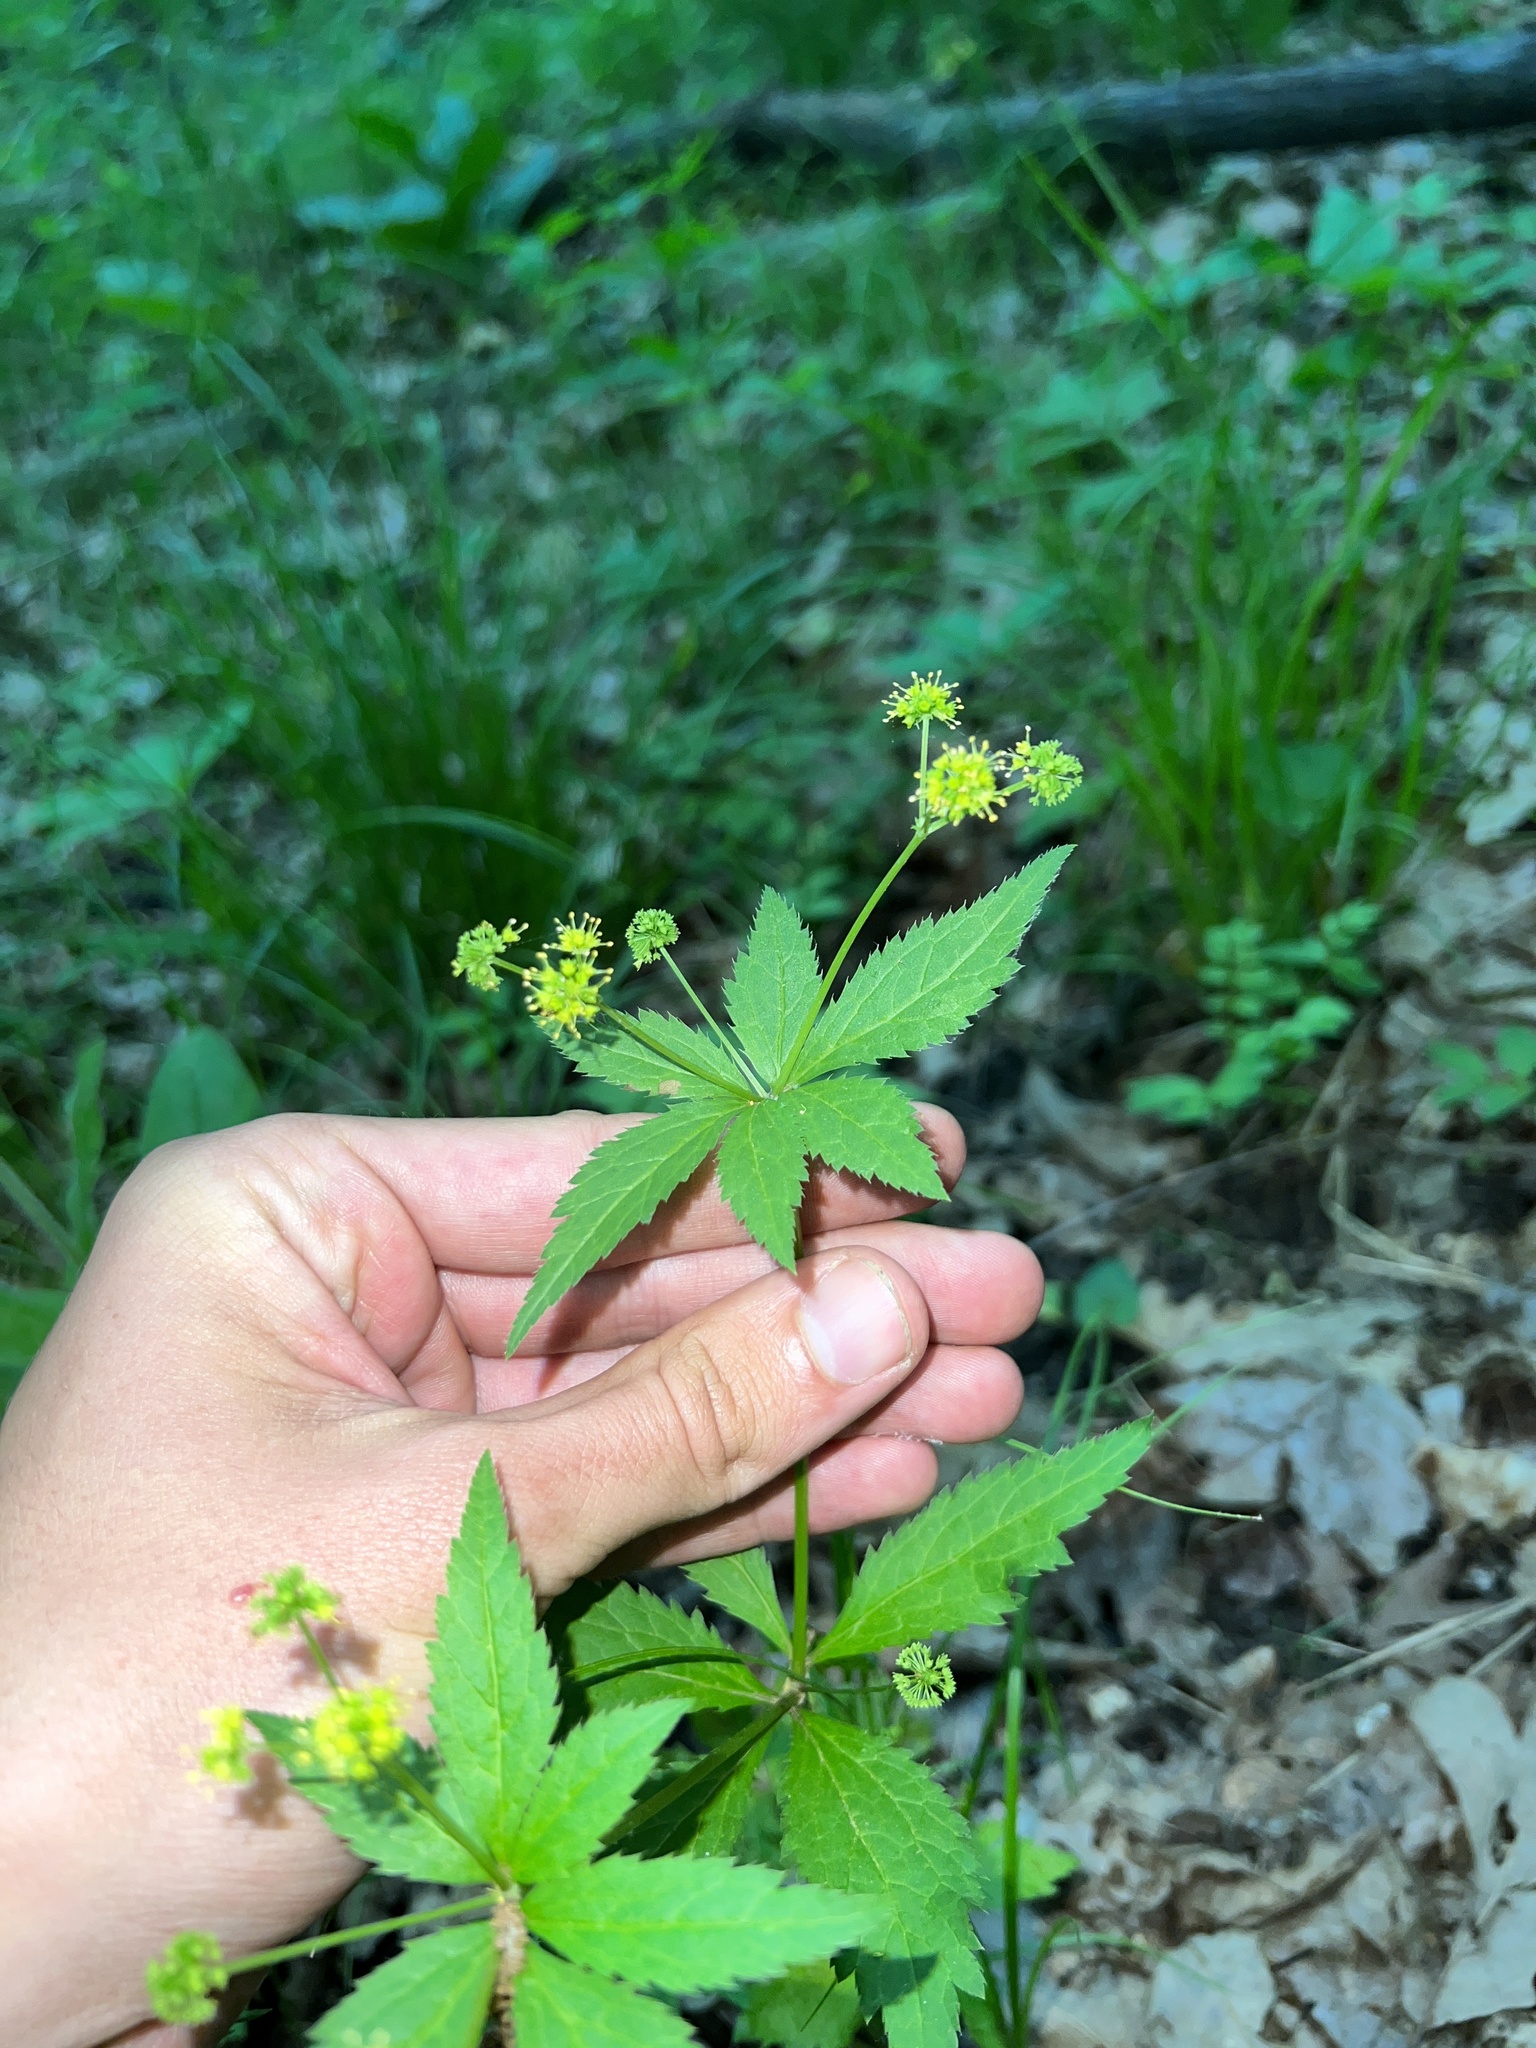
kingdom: Plantae
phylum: Tracheophyta
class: Magnoliopsida
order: Apiales
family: Apiaceae
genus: Sanicula
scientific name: Sanicula odorata
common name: Cluster sanicle
